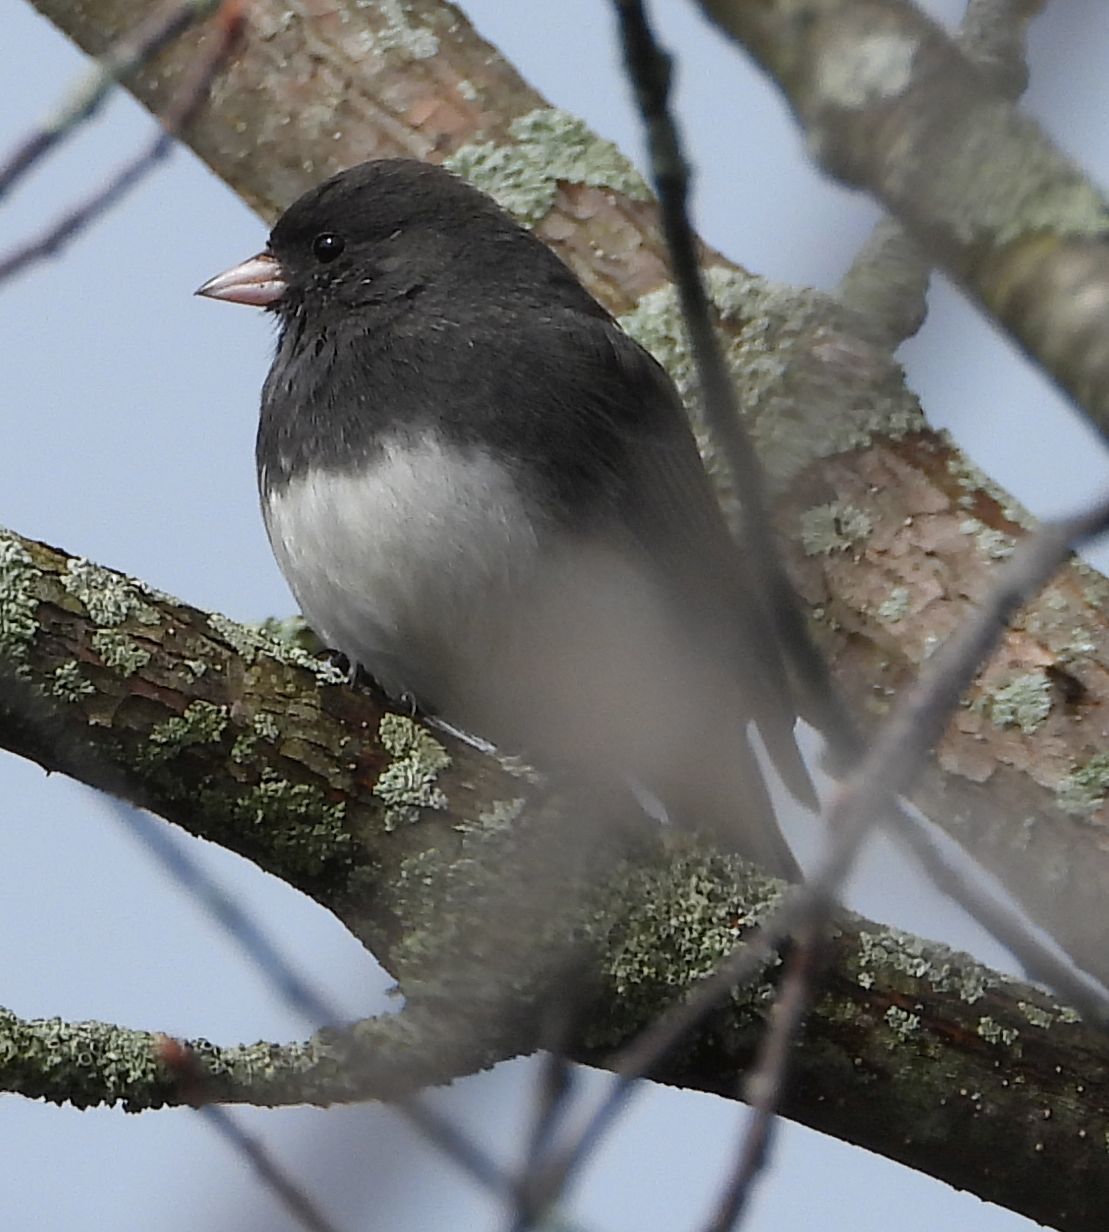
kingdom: Animalia
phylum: Chordata
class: Aves
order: Passeriformes
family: Passerellidae
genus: Junco
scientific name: Junco hyemalis
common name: Dark-eyed junco
